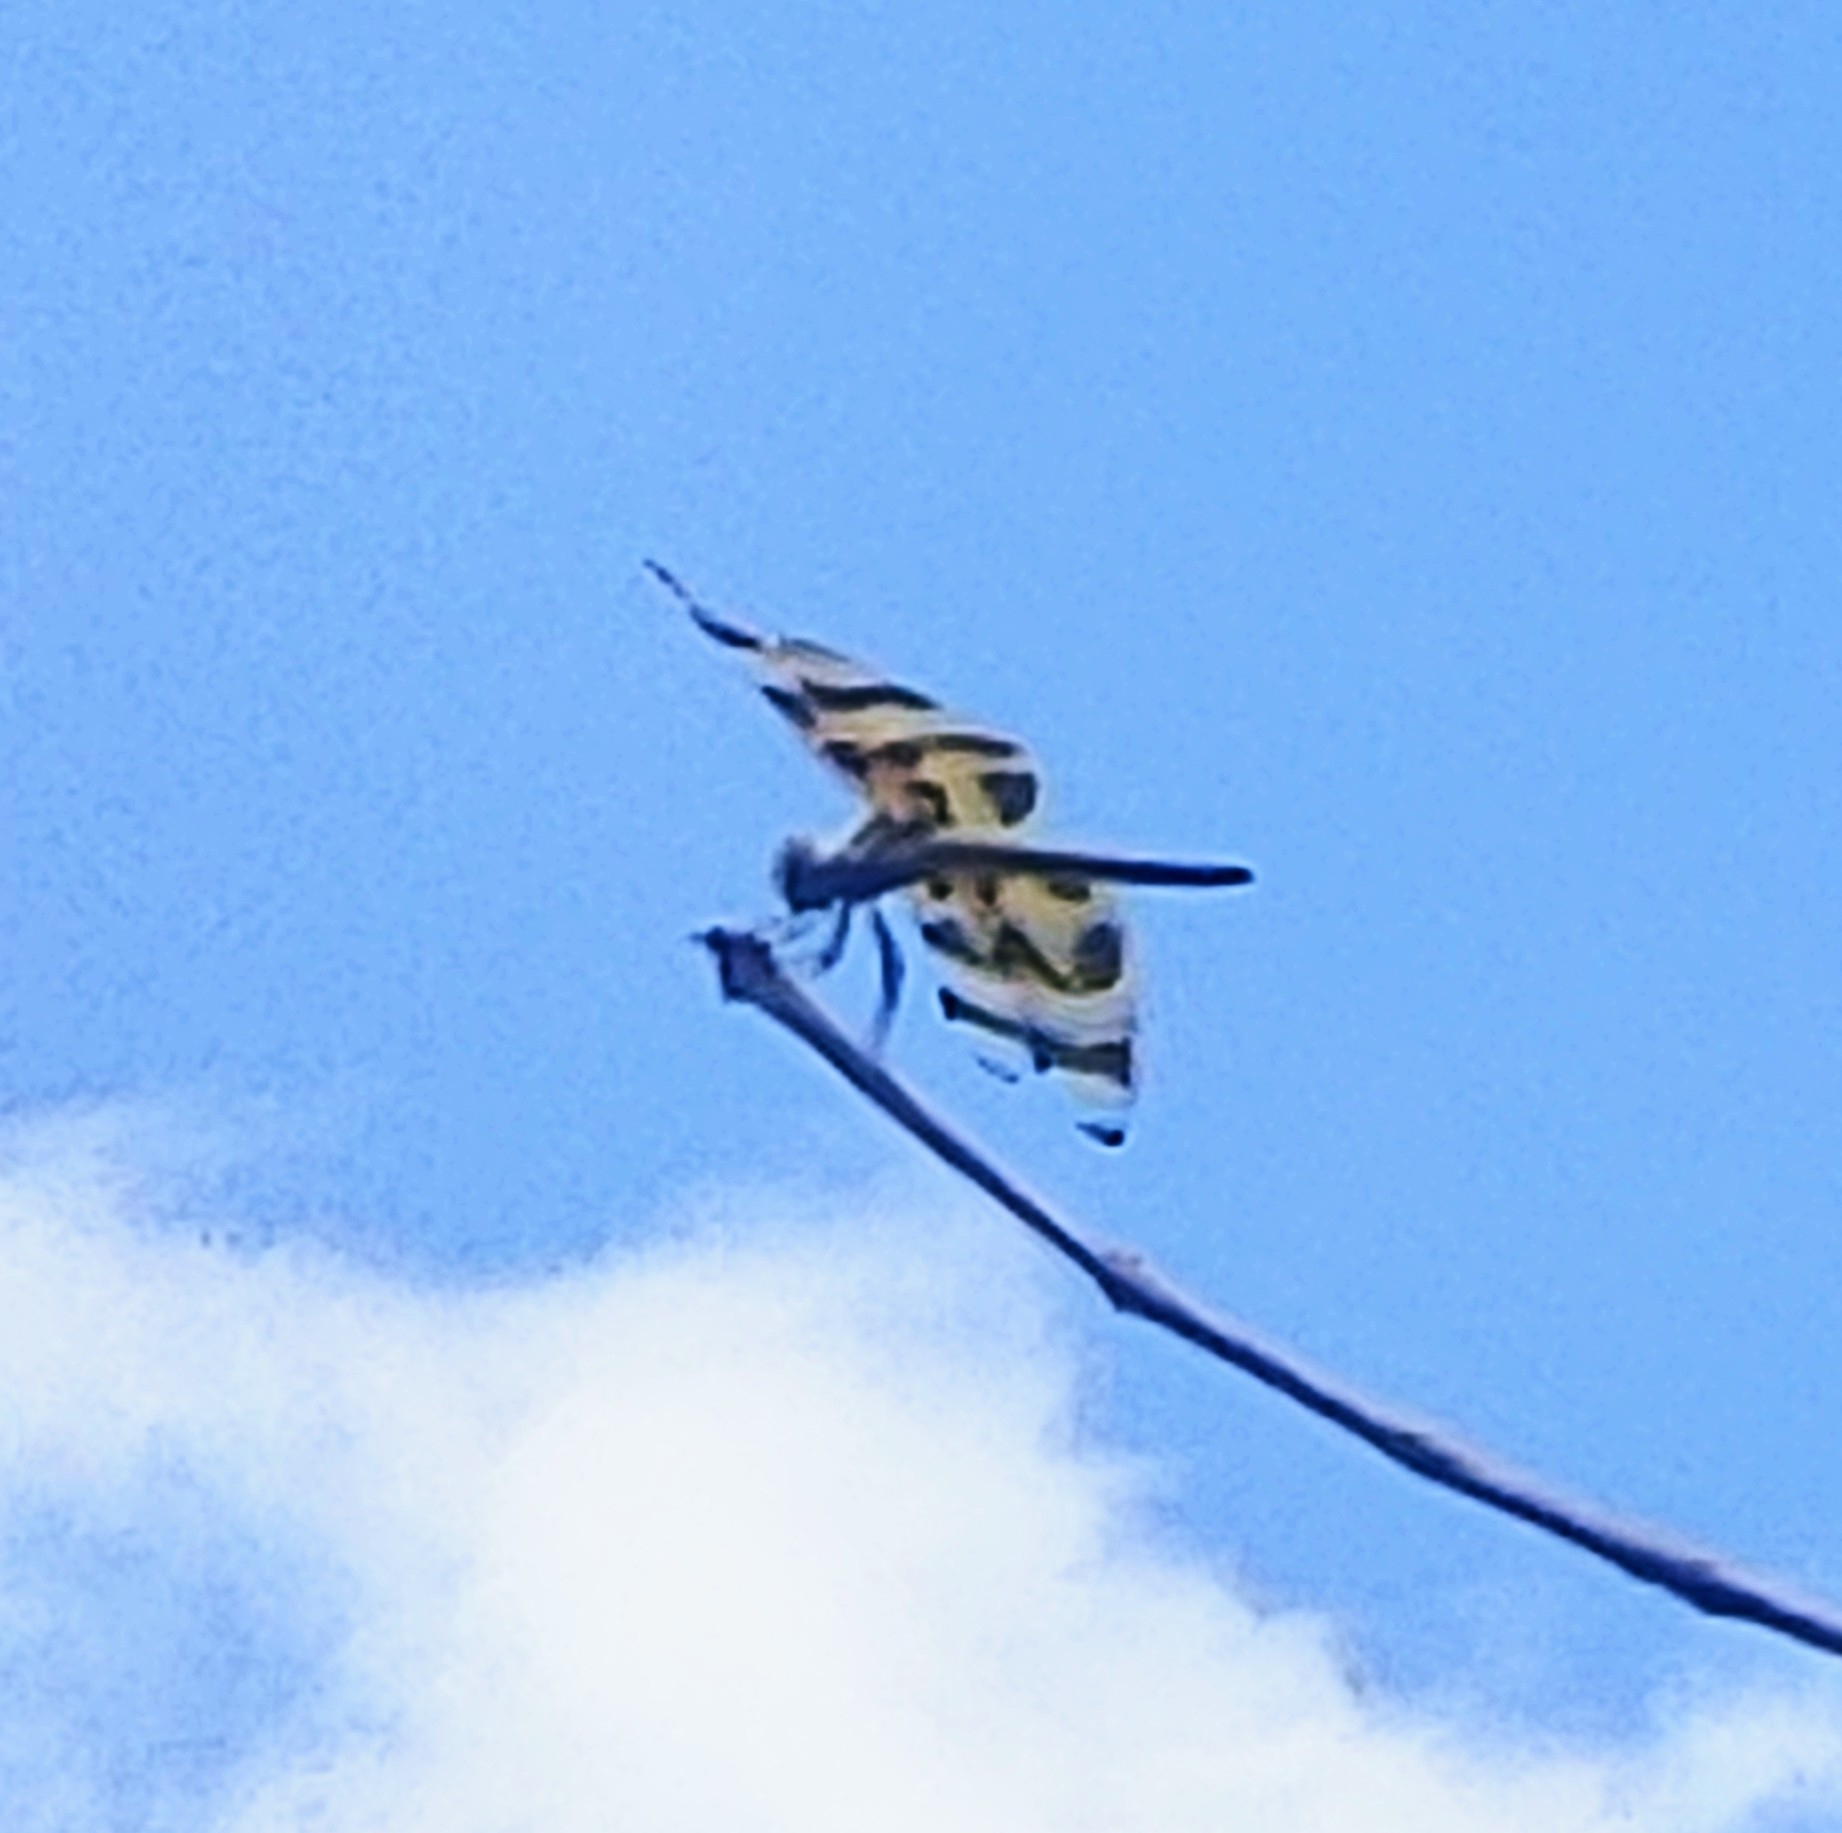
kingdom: Animalia
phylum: Arthropoda
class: Insecta
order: Odonata
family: Libellulidae
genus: Celithemis
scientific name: Celithemis eponina
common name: Halloween pennant
